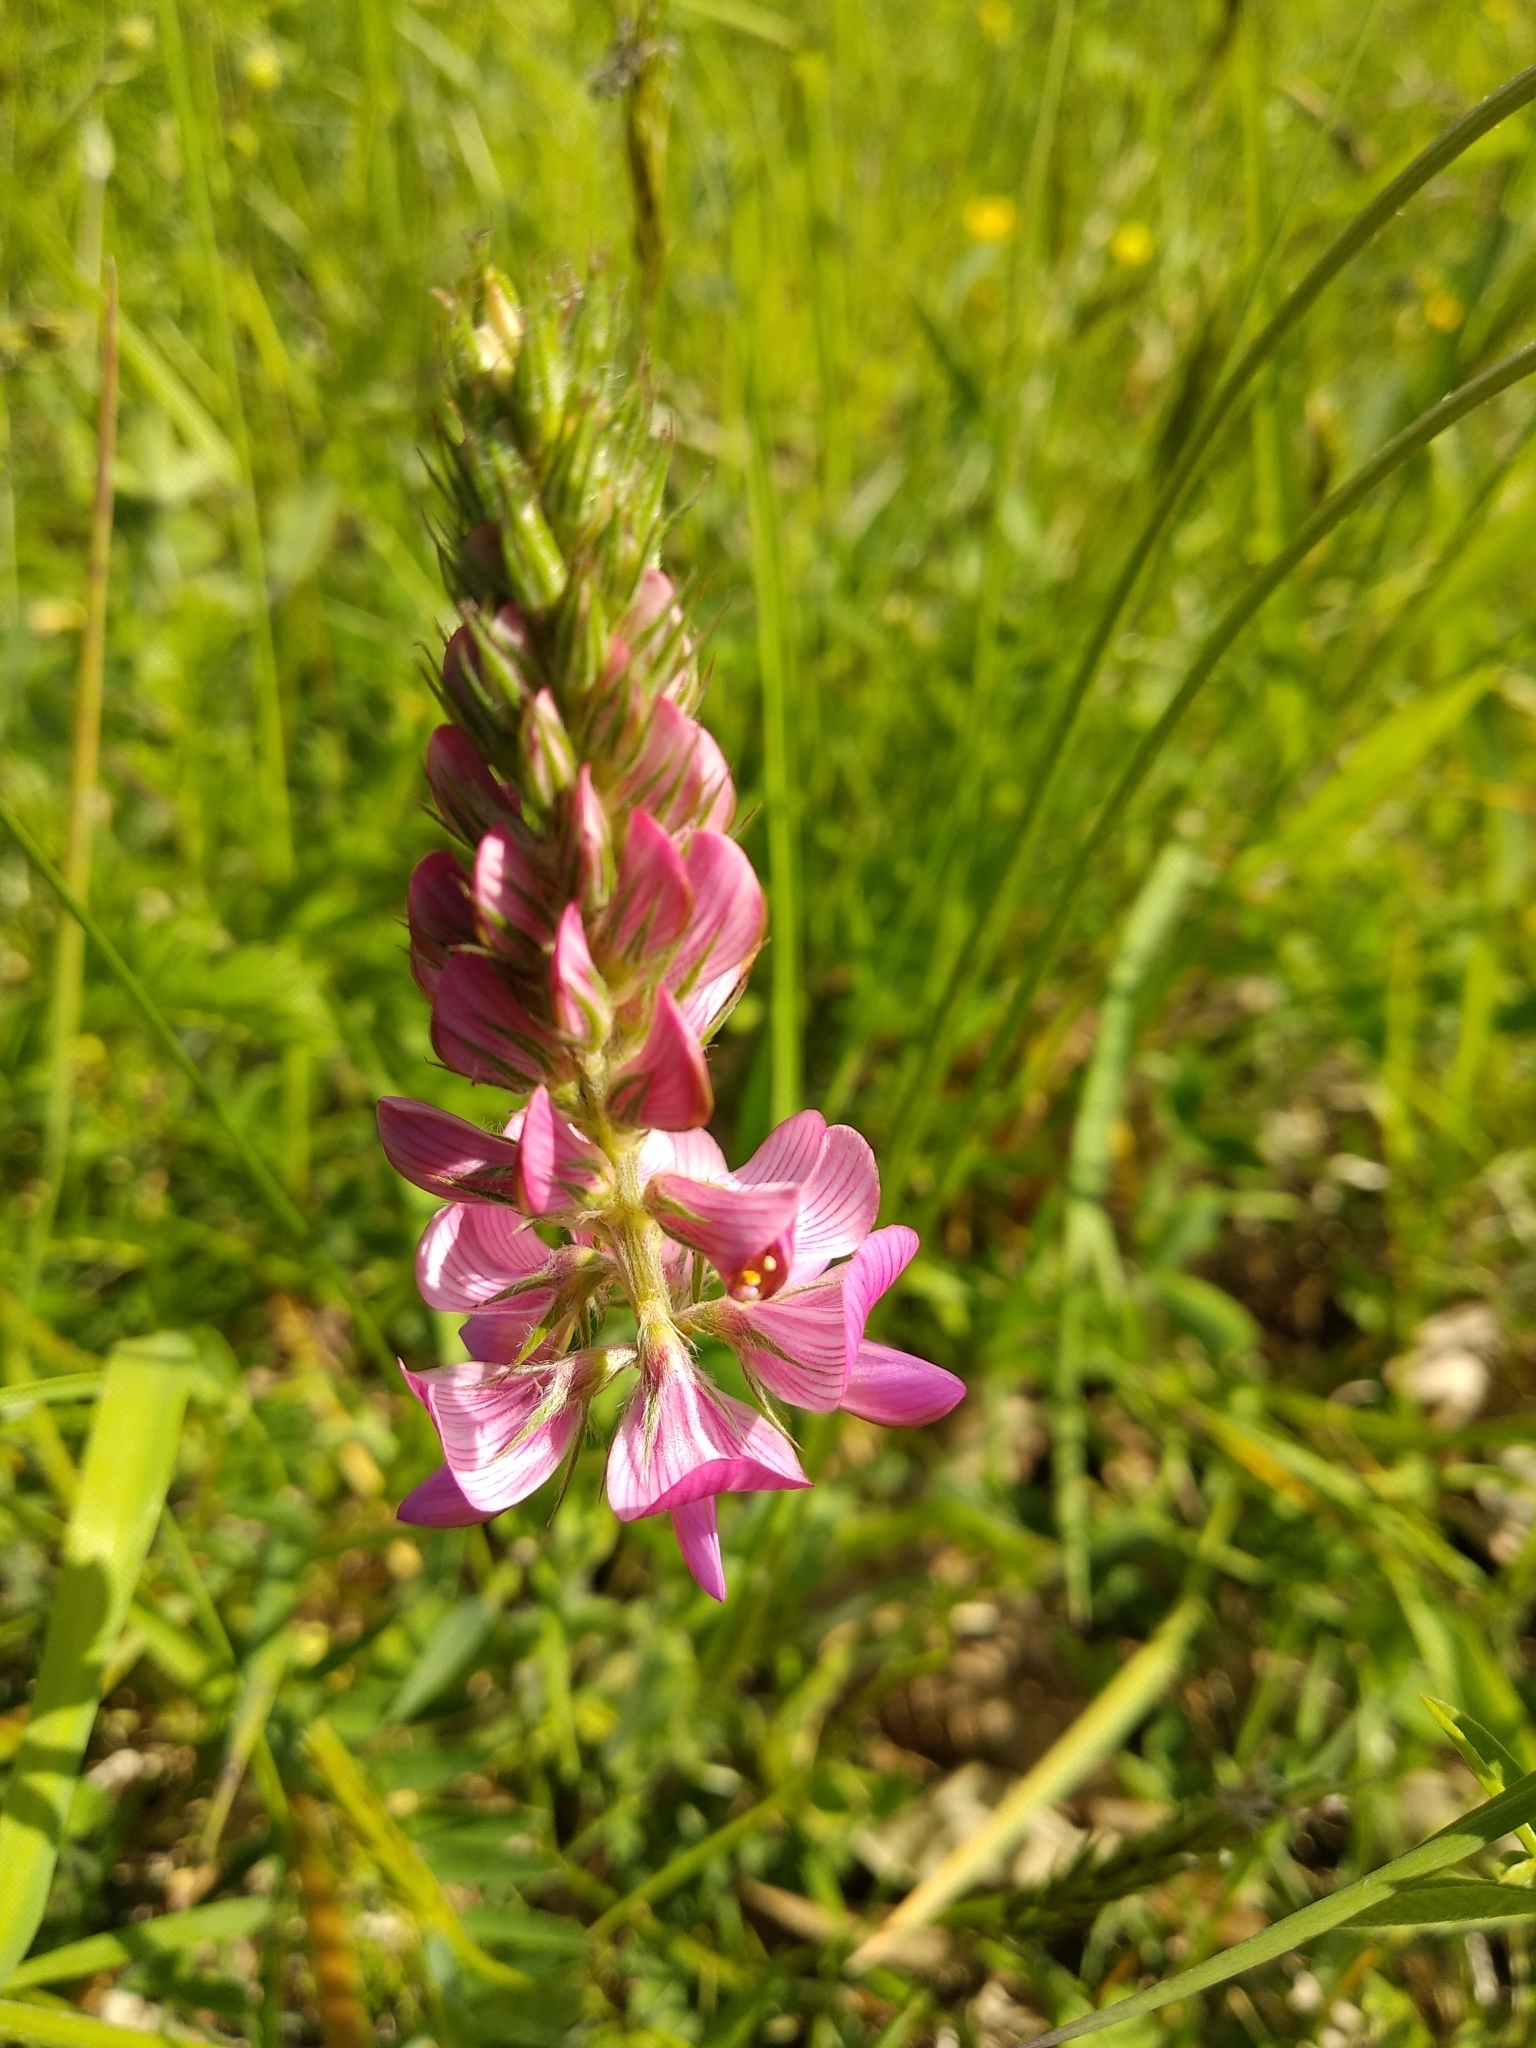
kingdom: Plantae
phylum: Tracheophyta
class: Magnoliopsida
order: Fabales
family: Fabaceae
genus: Onobrychis
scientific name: Onobrychis viciifolia
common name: Sainfoin
